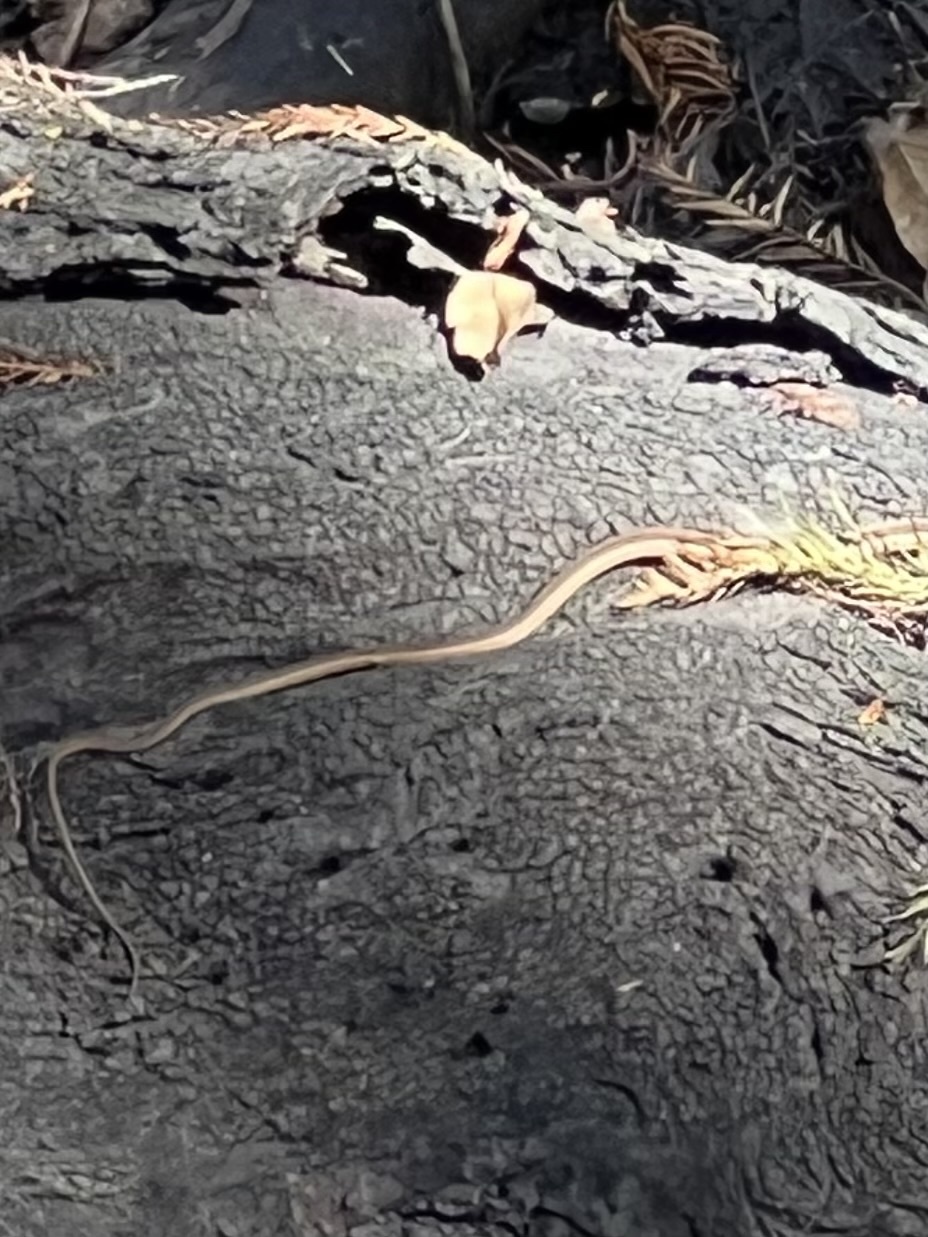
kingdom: Animalia
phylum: Chordata
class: Squamata
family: Colubridae
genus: Thamnophis
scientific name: Thamnophis saurita
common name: Eastern ribbonsnake
